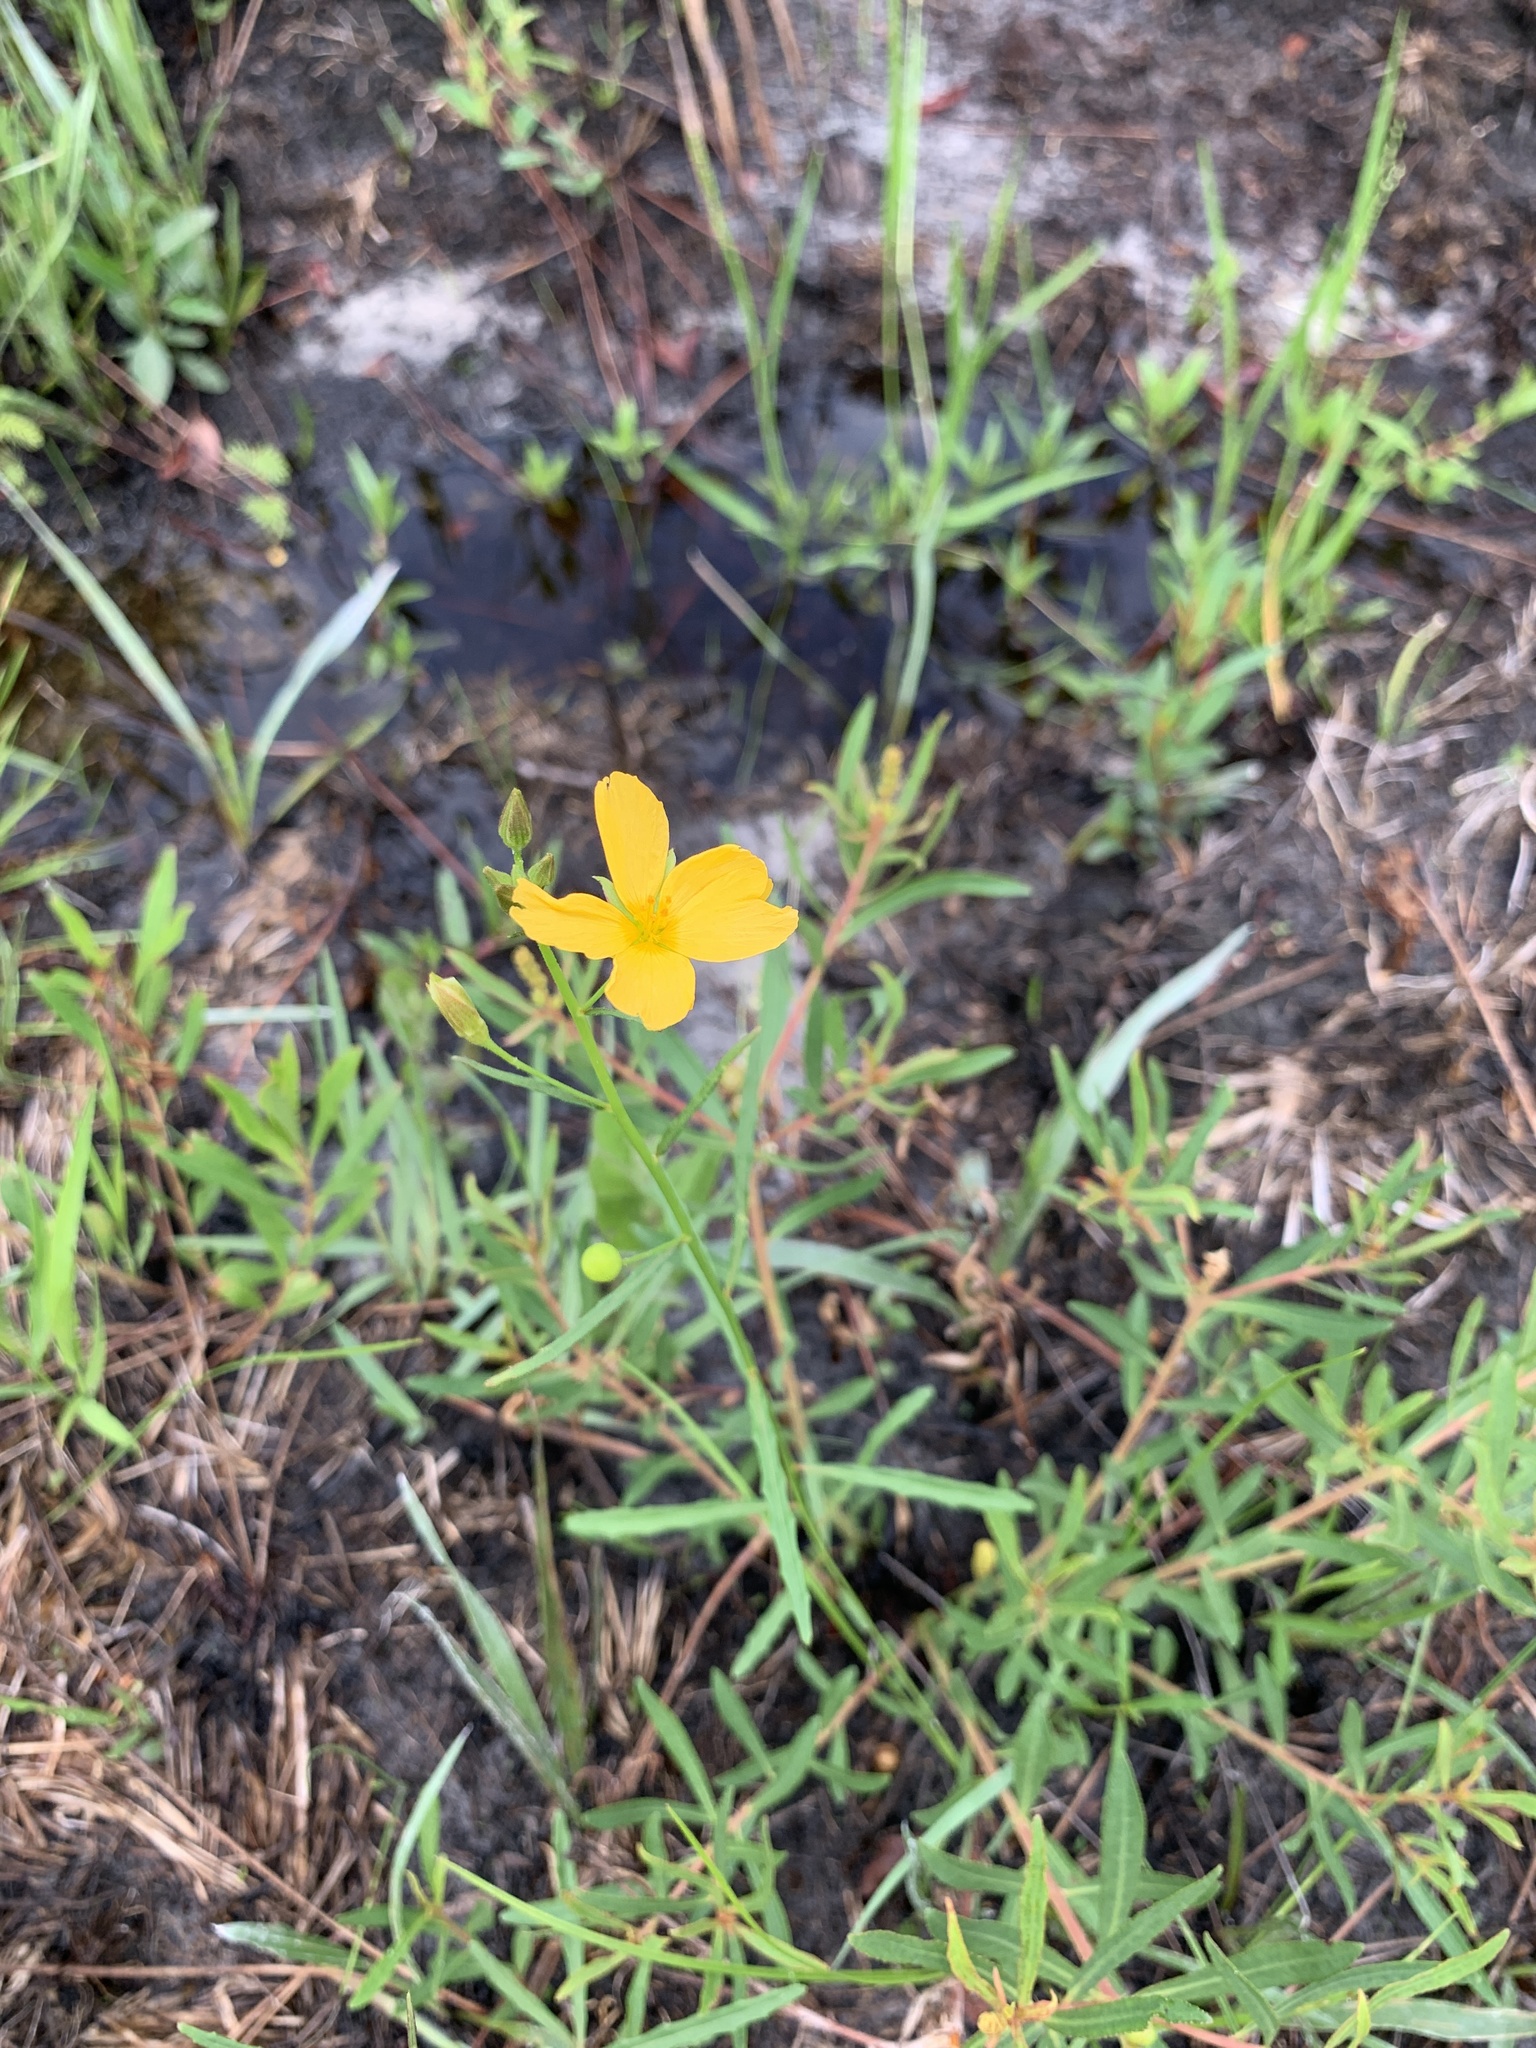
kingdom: Plantae
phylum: Tracheophyta
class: Magnoliopsida
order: Malpighiales
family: Turneraceae
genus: Piriqueta
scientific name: Piriqueta cistoides
